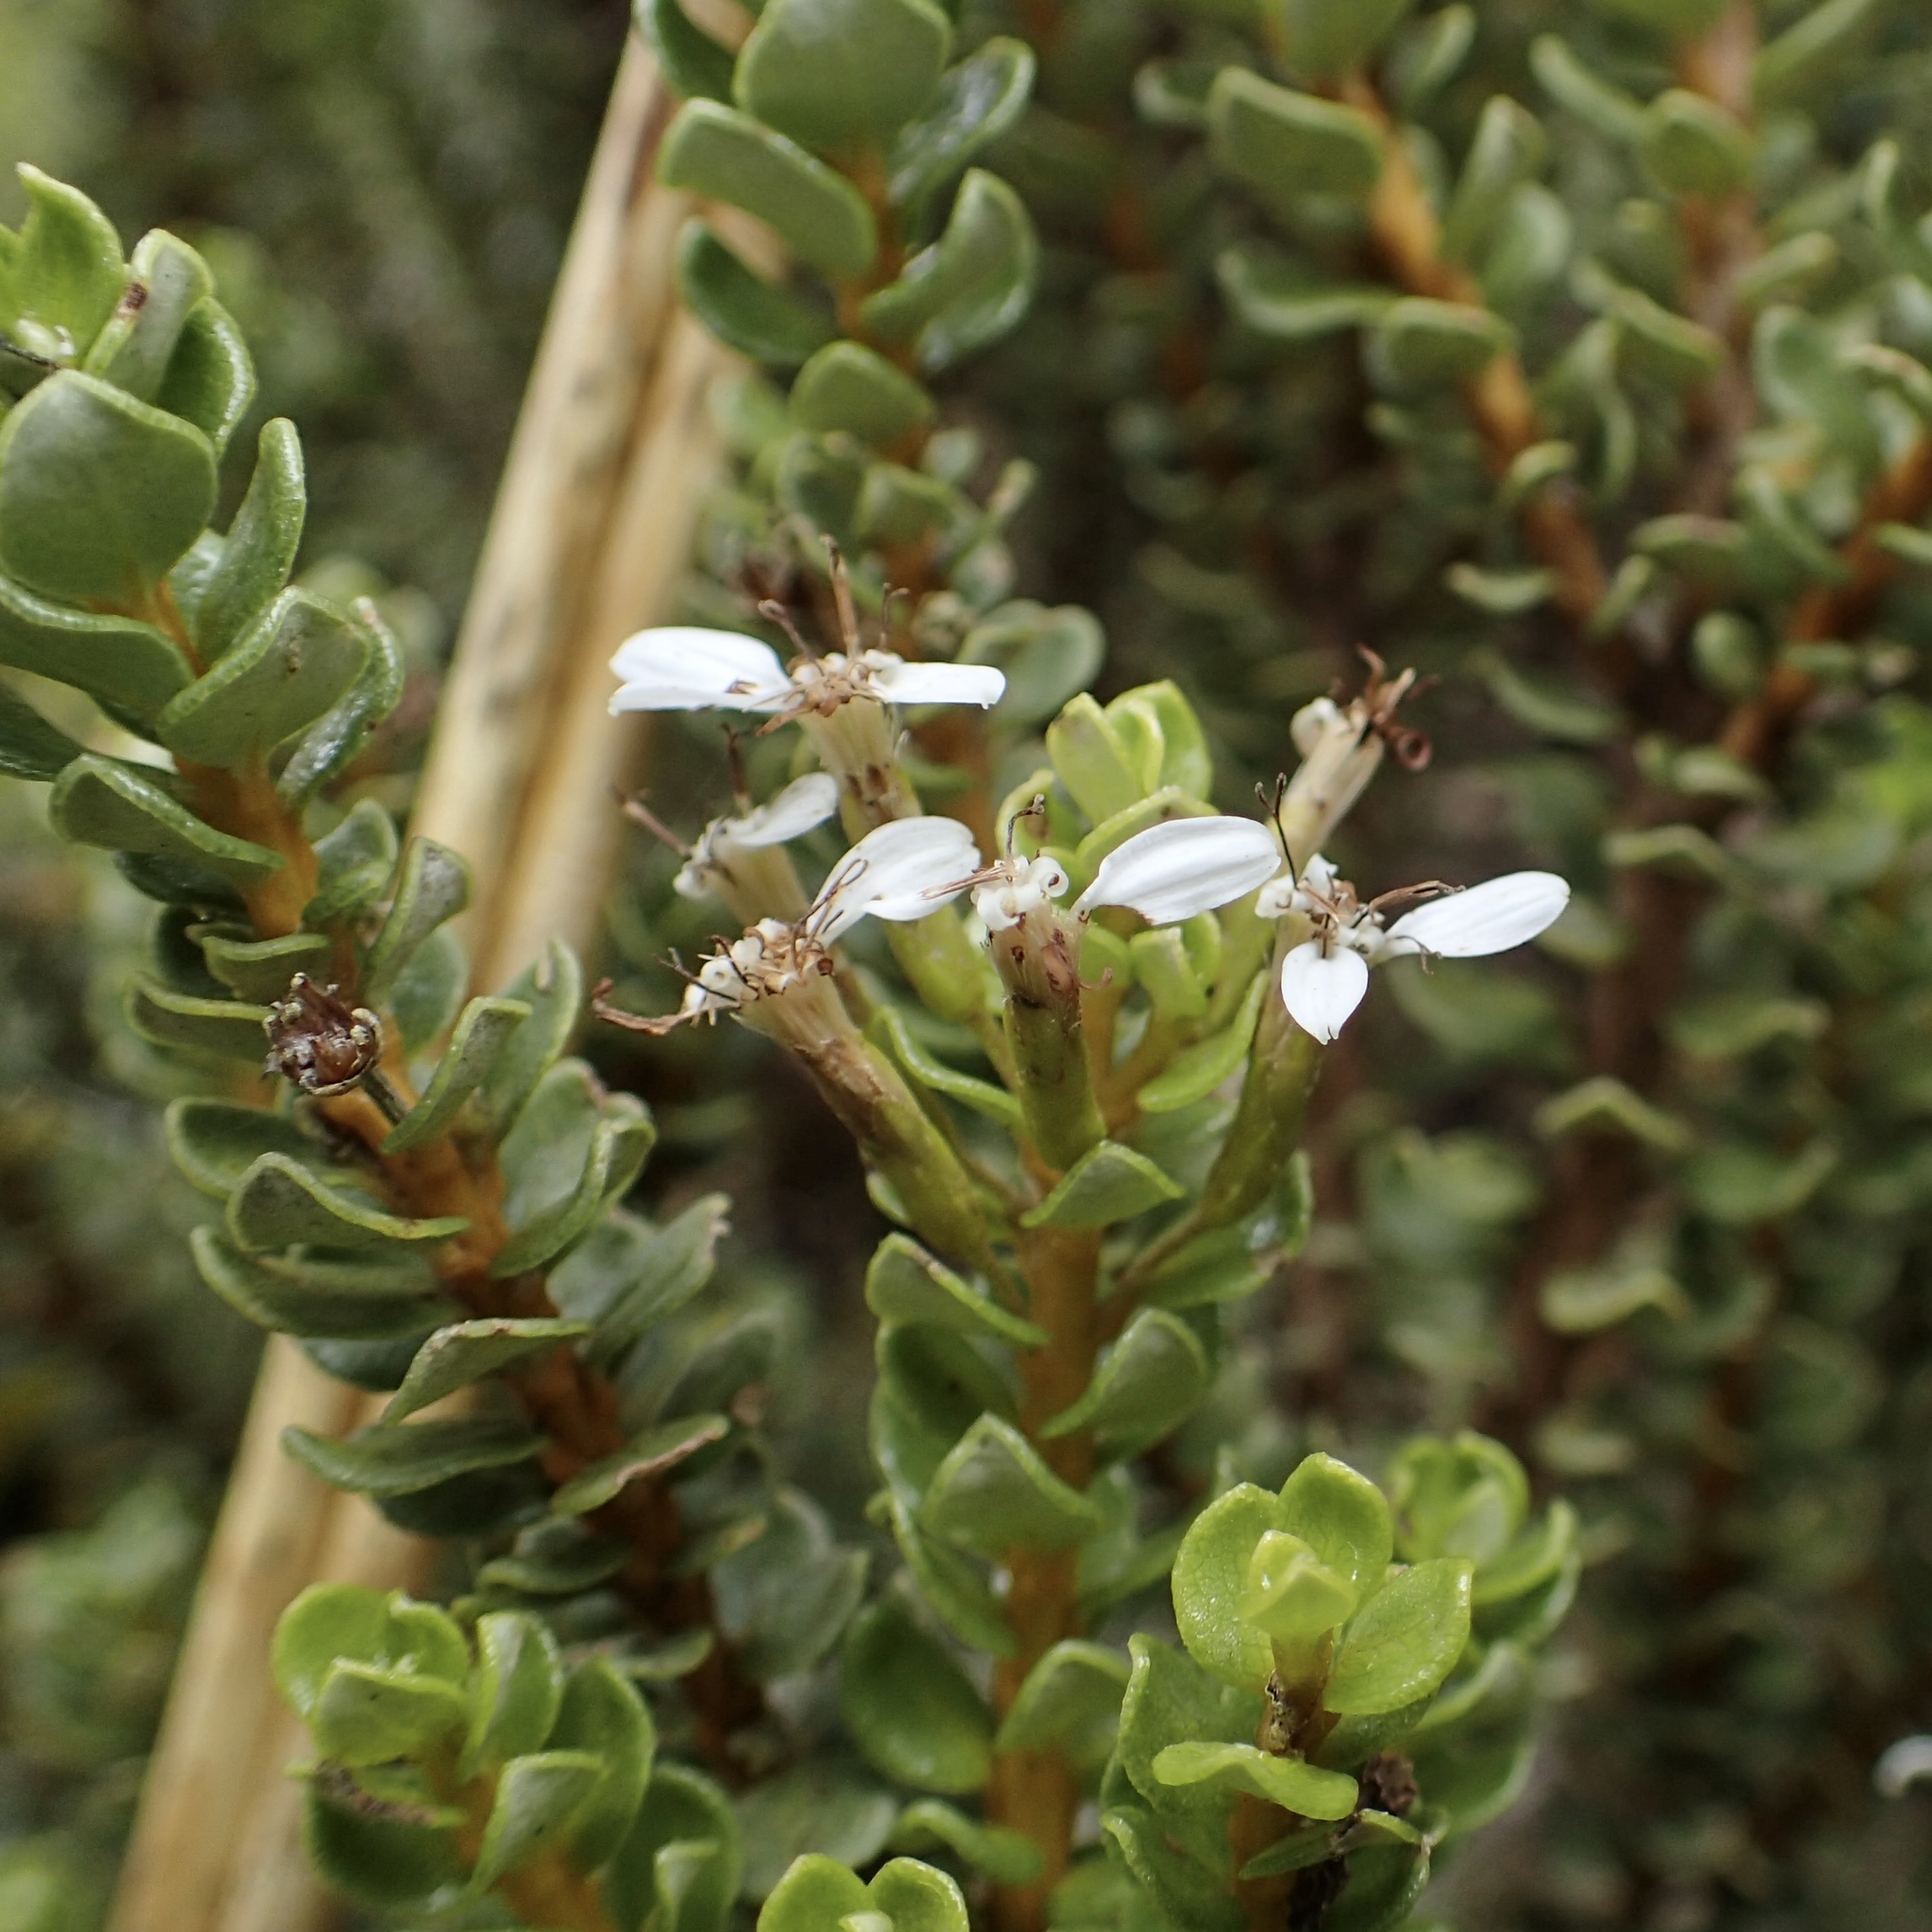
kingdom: Plantae
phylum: Tracheophyta
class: Magnoliopsida
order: Asterales
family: Asteraceae
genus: Olearia
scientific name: Olearia nummularifolia
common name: Sticky daisybush
